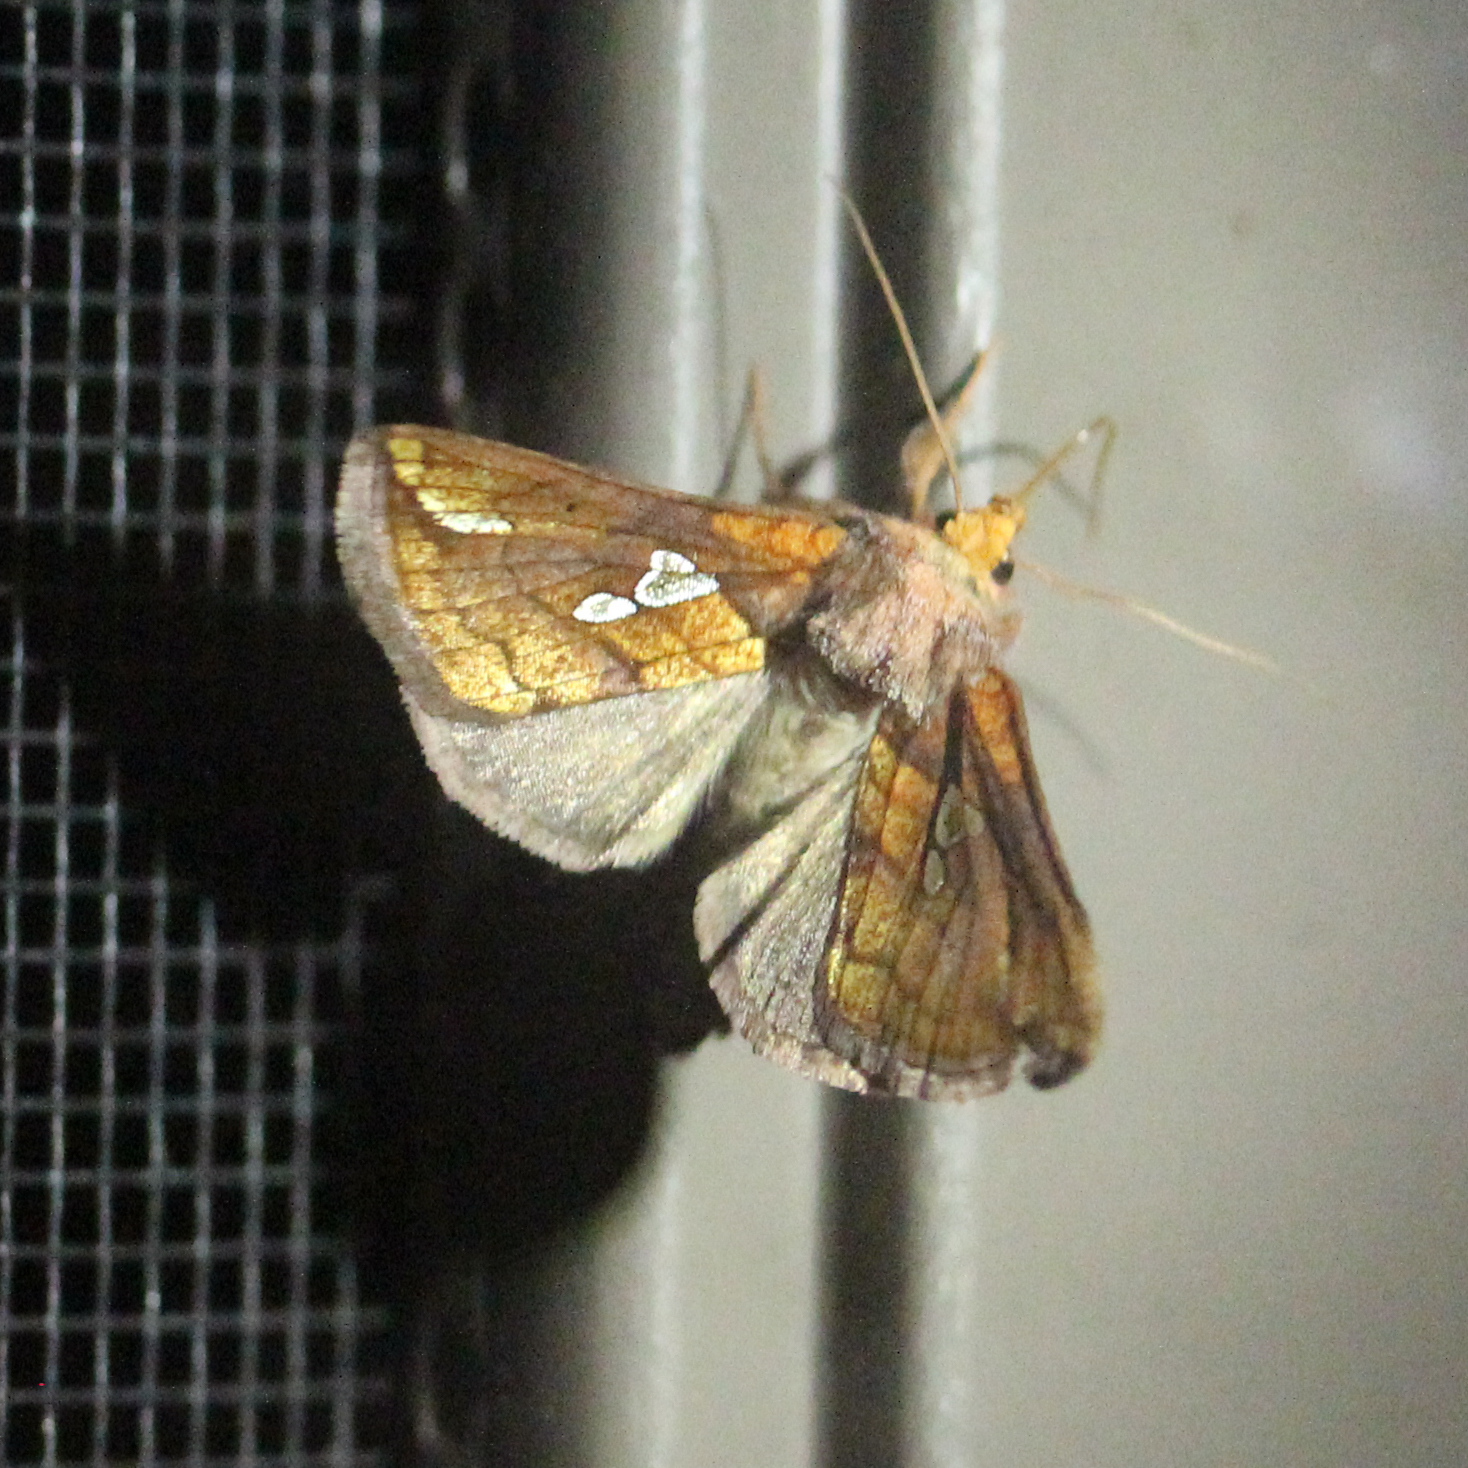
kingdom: Animalia
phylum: Arthropoda
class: Insecta
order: Lepidoptera
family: Noctuidae
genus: Plusia
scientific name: Plusia putnami
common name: Lempke's gold spot
